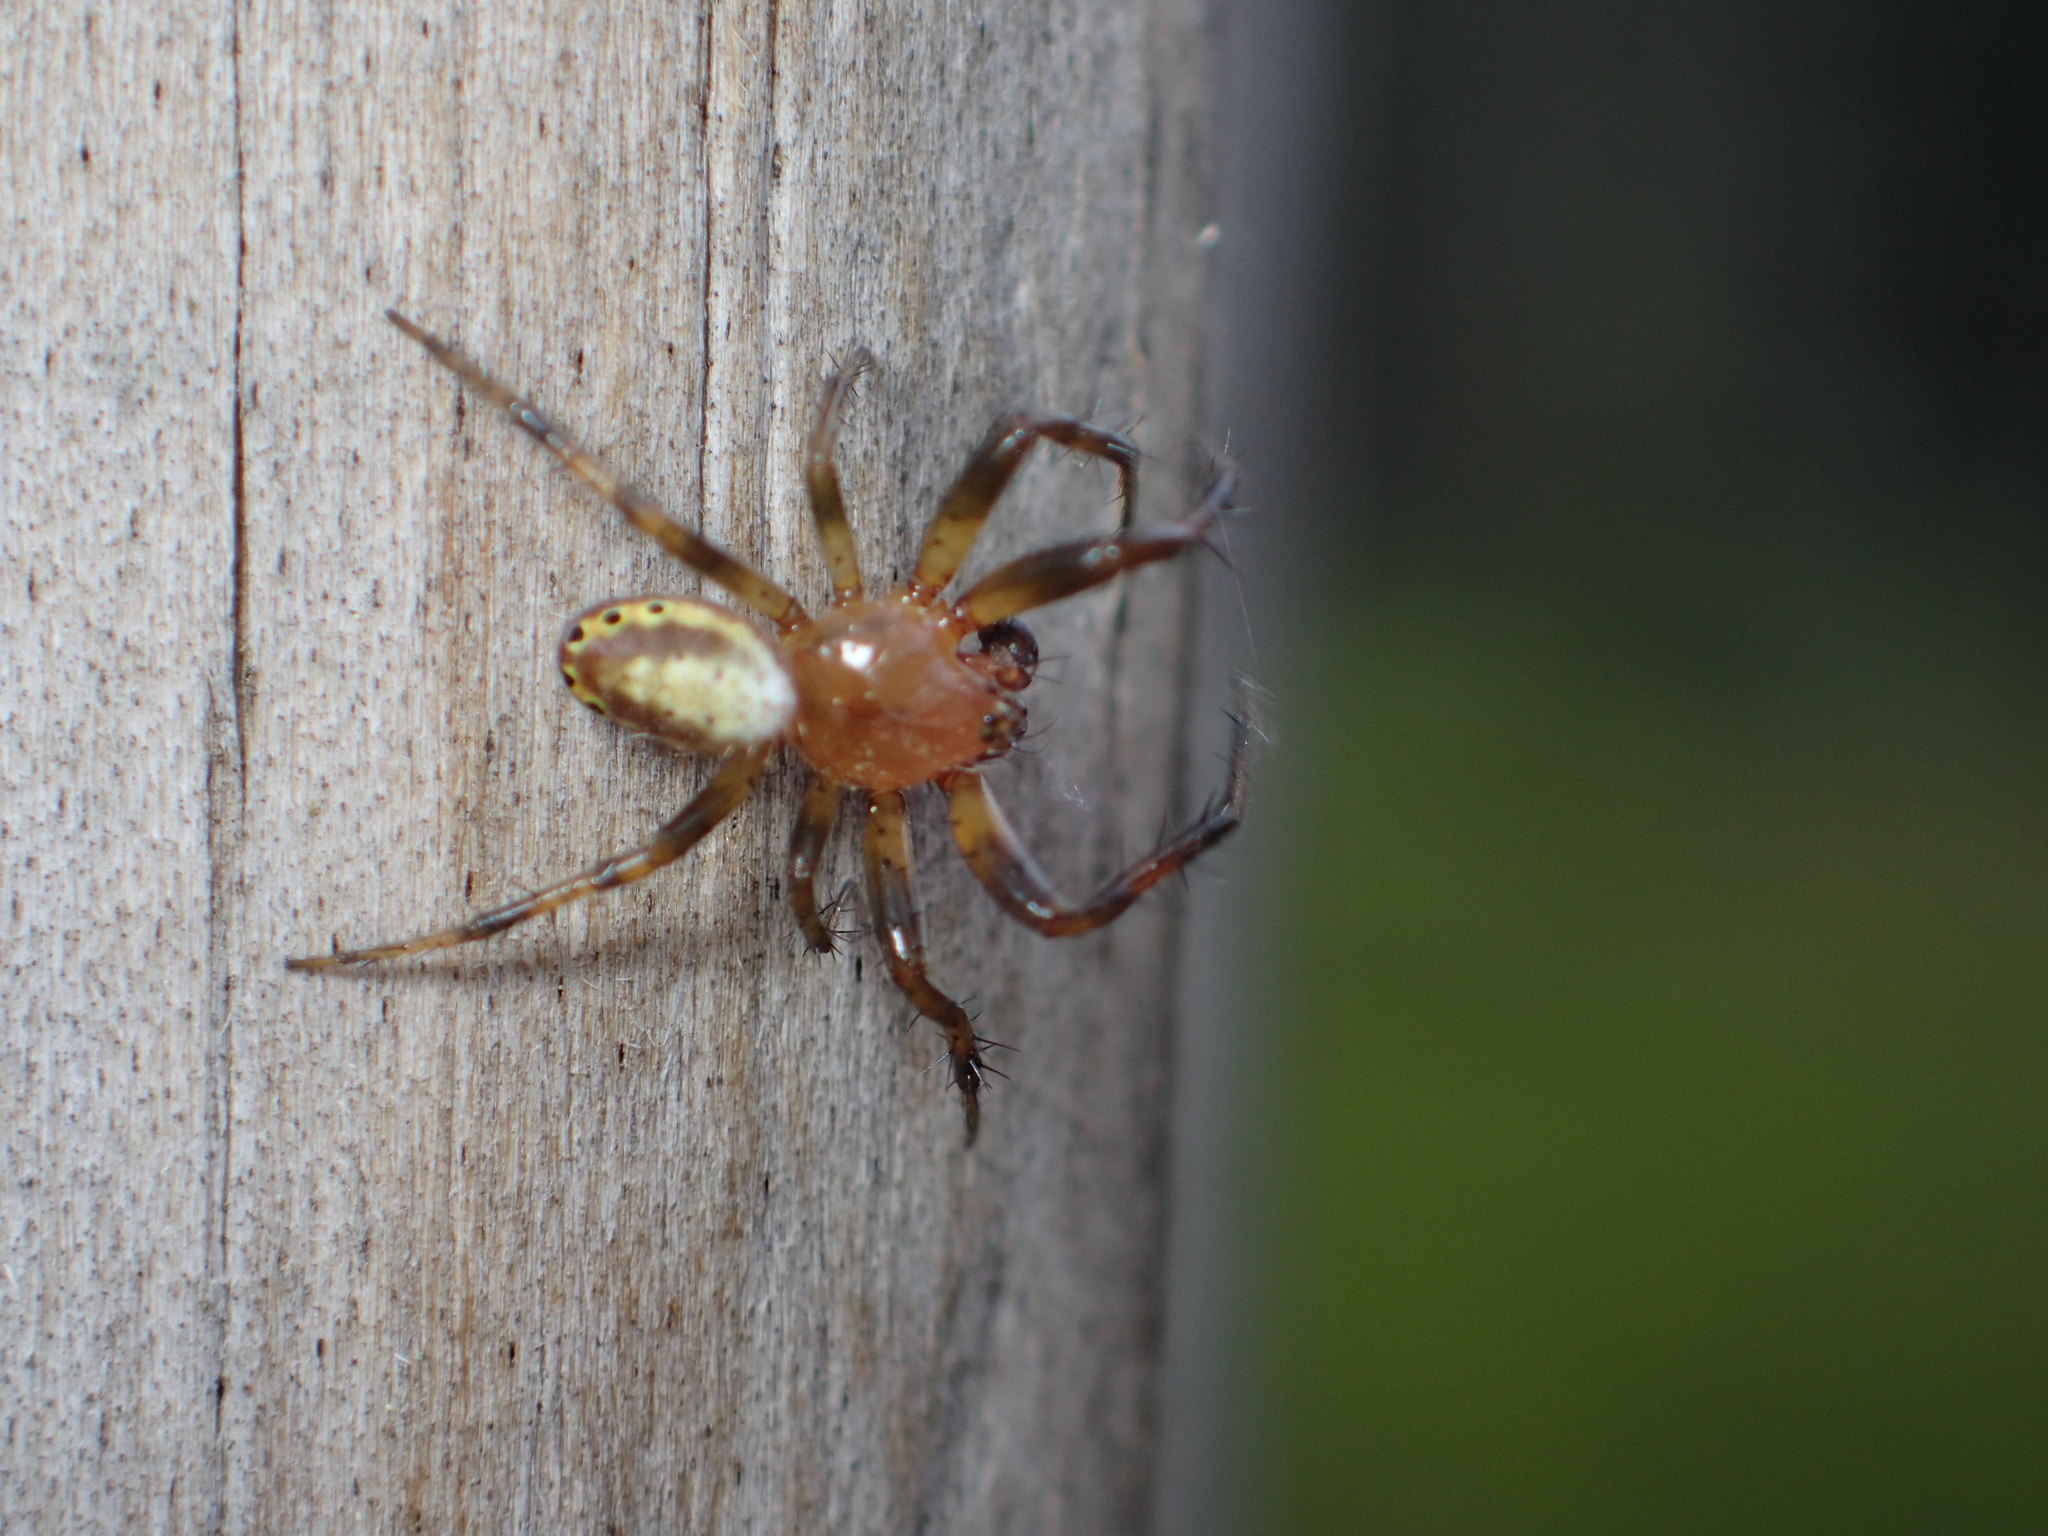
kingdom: Animalia
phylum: Arthropoda
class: Arachnida
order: Araneae
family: Araneidae
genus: Araniella
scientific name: Araniella displicata
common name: Sixspotted orb weaver
